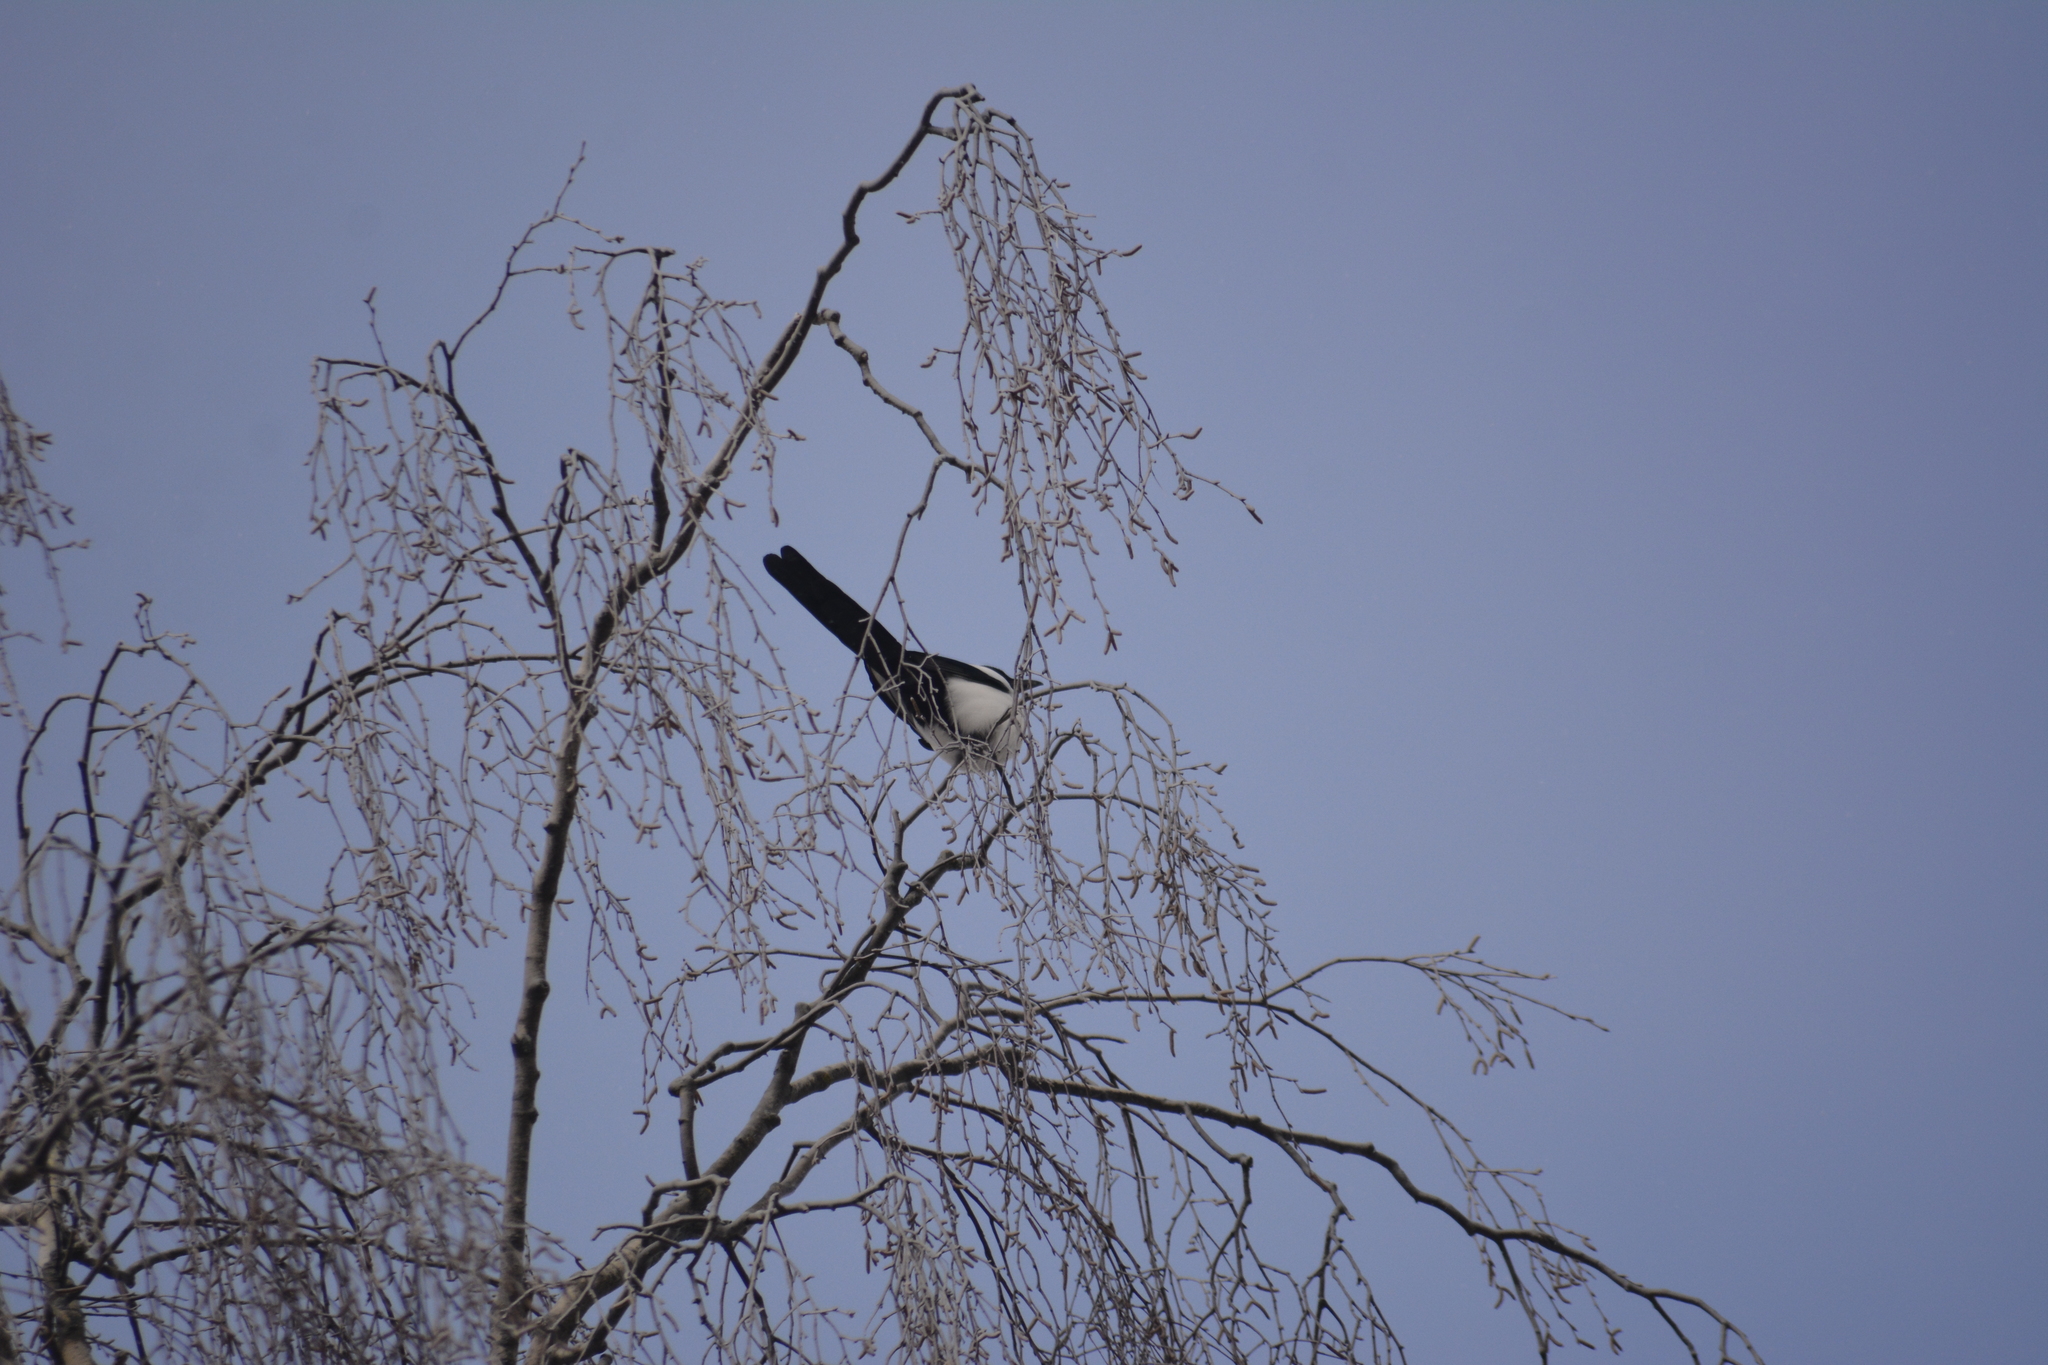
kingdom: Animalia
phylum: Chordata
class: Aves
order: Passeriformes
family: Corvidae
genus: Pica
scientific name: Pica pica
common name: Eurasian magpie
